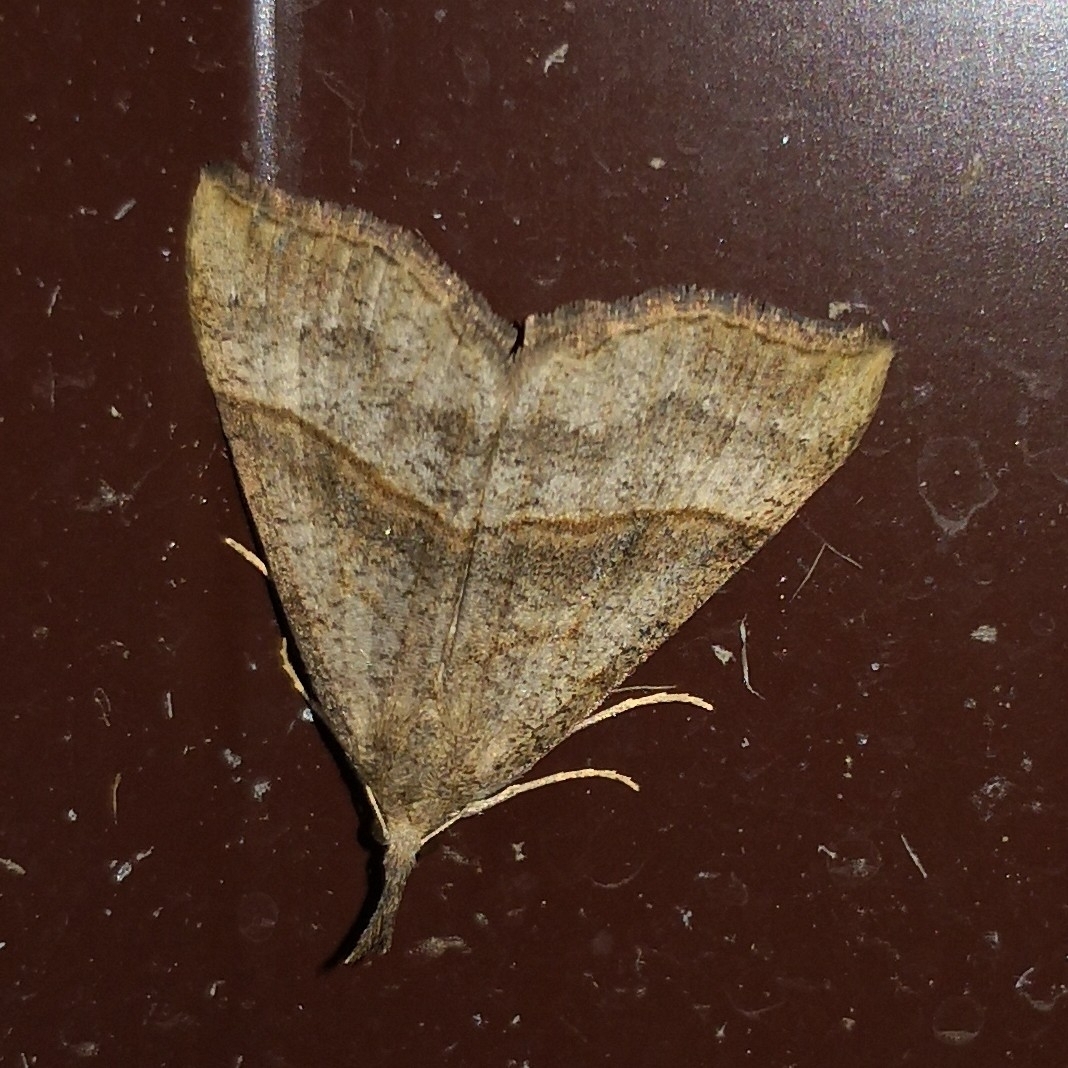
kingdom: Animalia
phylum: Arthropoda
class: Insecta
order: Lepidoptera
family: Erebidae
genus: Hypena
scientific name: Hypena proboscidalis
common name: Snout
